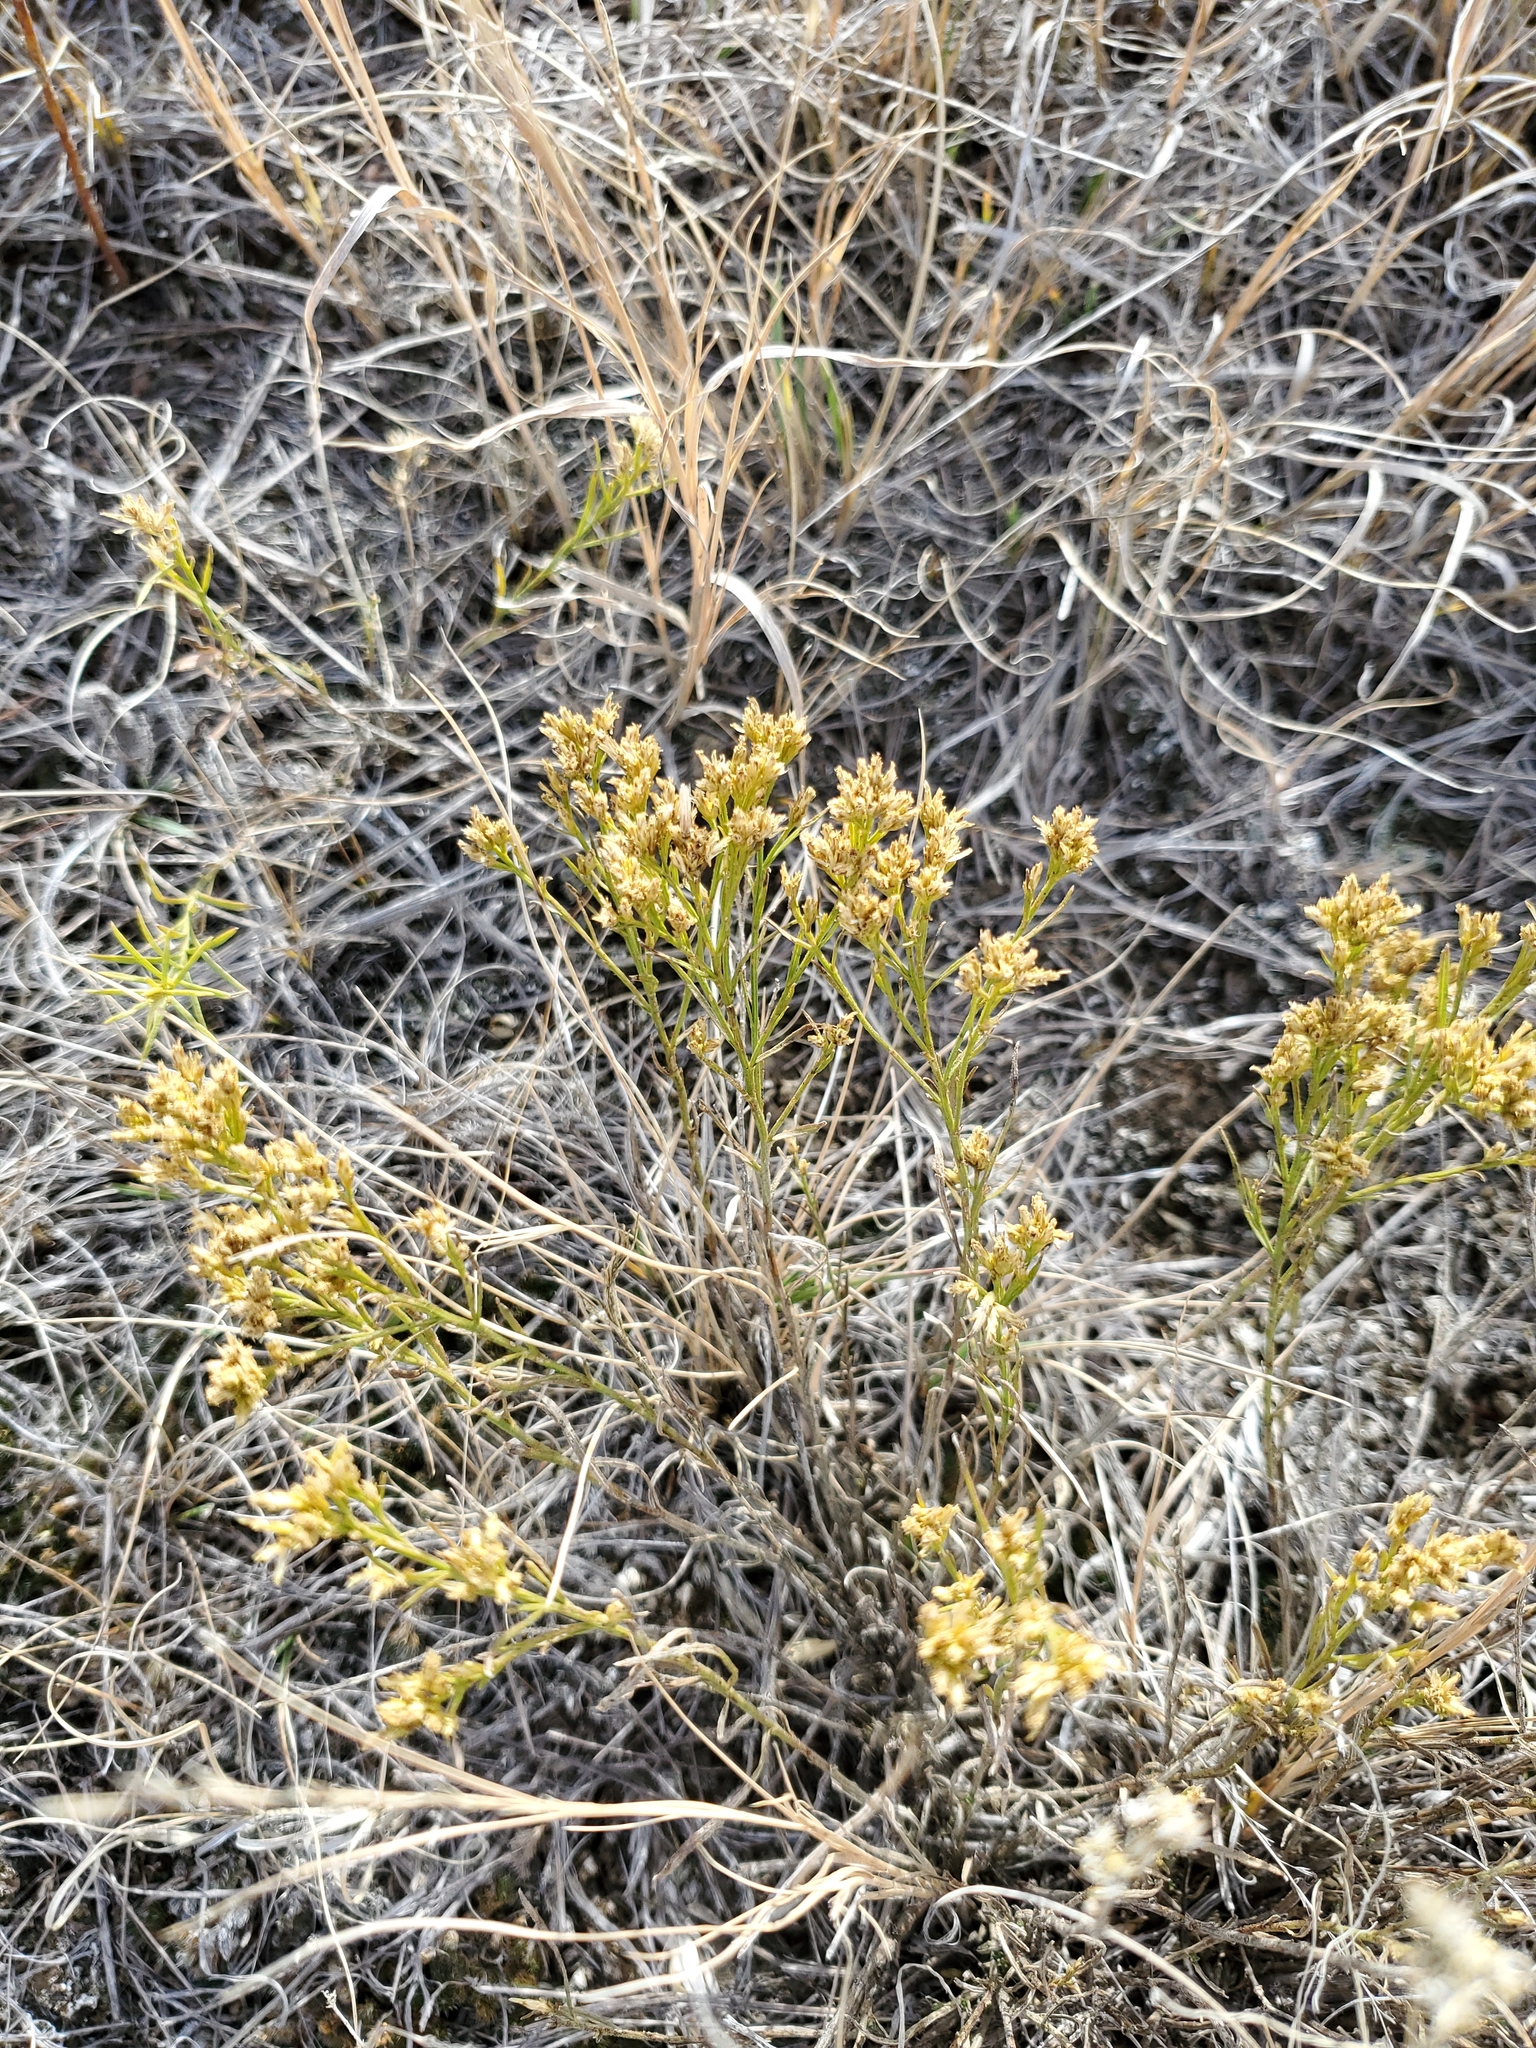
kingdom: Plantae
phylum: Tracheophyta
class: Magnoliopsida
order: Asterales
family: Asteraceae
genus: Gutierrezia
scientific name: Gutierrezia sarothrae
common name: Broom snakeweed
